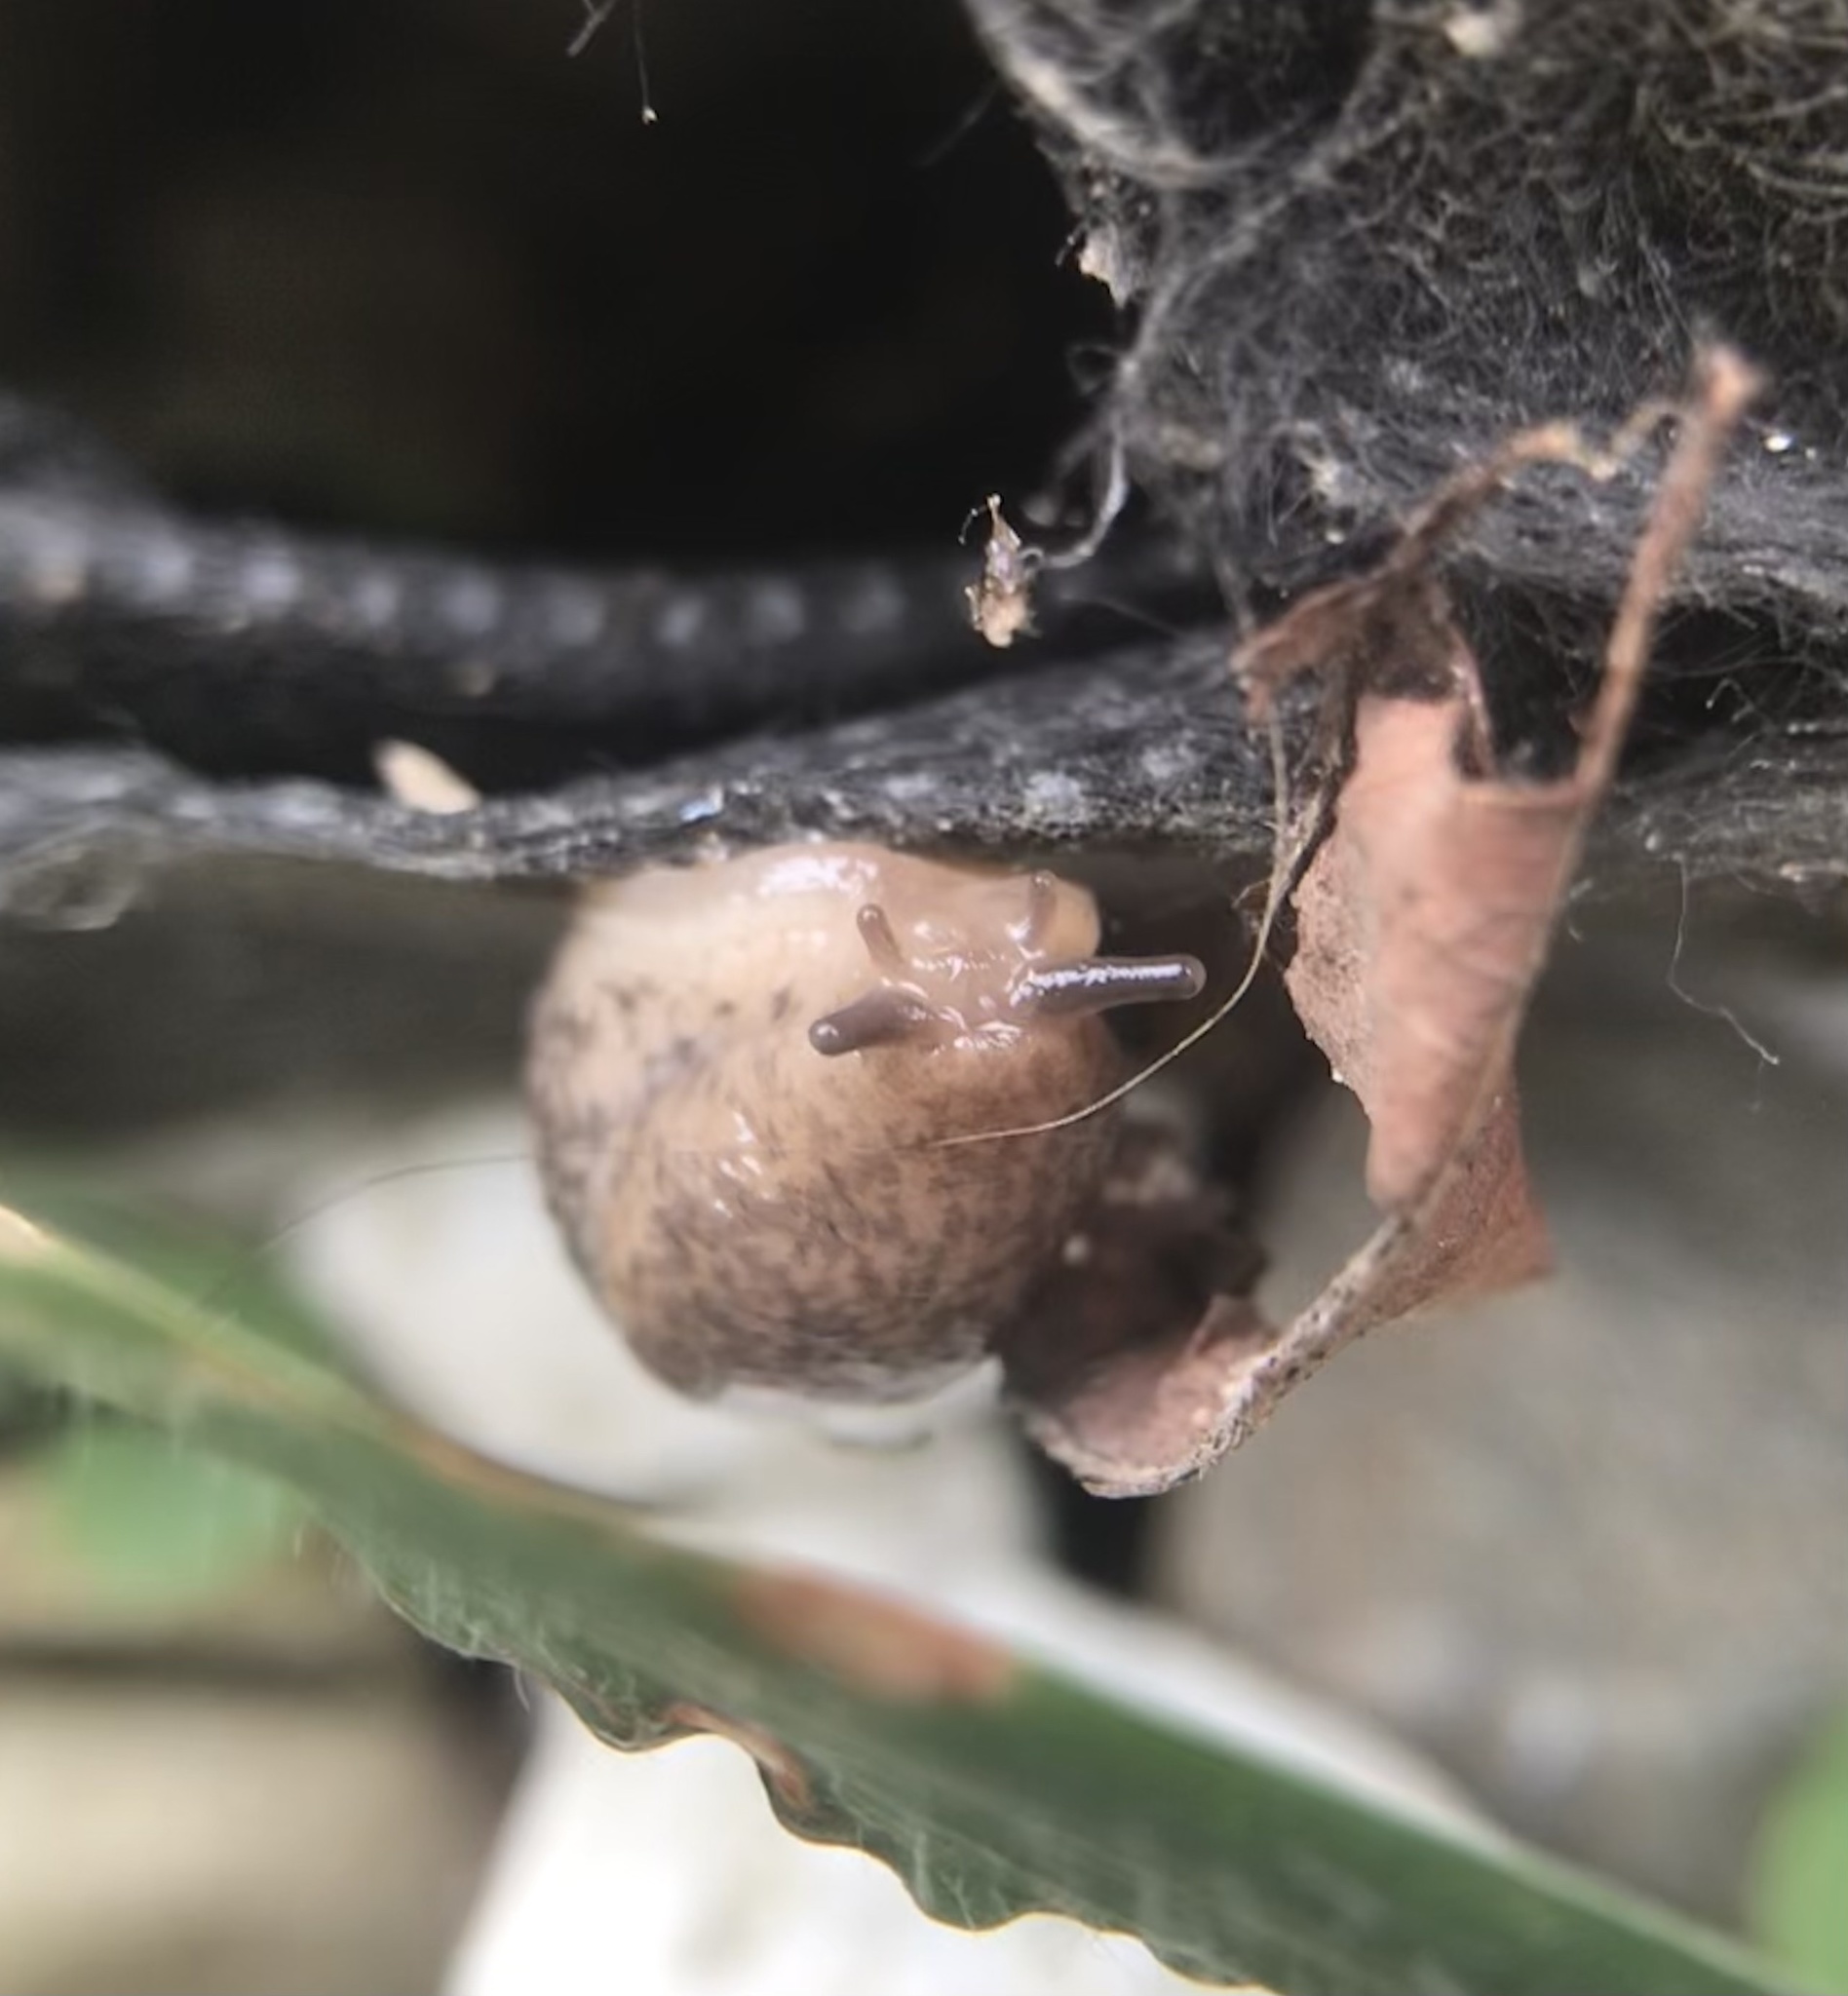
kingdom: Animalia
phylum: Mollusca
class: Gastropoda
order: Stylommatophora
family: Agriolimacidae
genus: Deroceras
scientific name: Deroceras reticulatum
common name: Gray field slug
